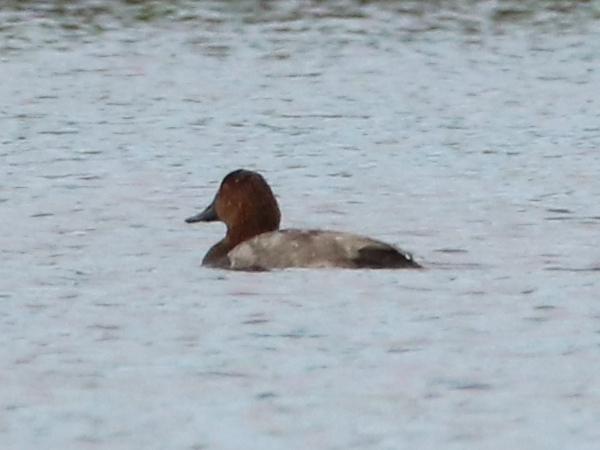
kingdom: Animalia
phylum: Chordata
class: Aves
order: Anseriformes
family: Anatidae
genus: Aythya
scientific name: Aythya ferina
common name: Common pochard
